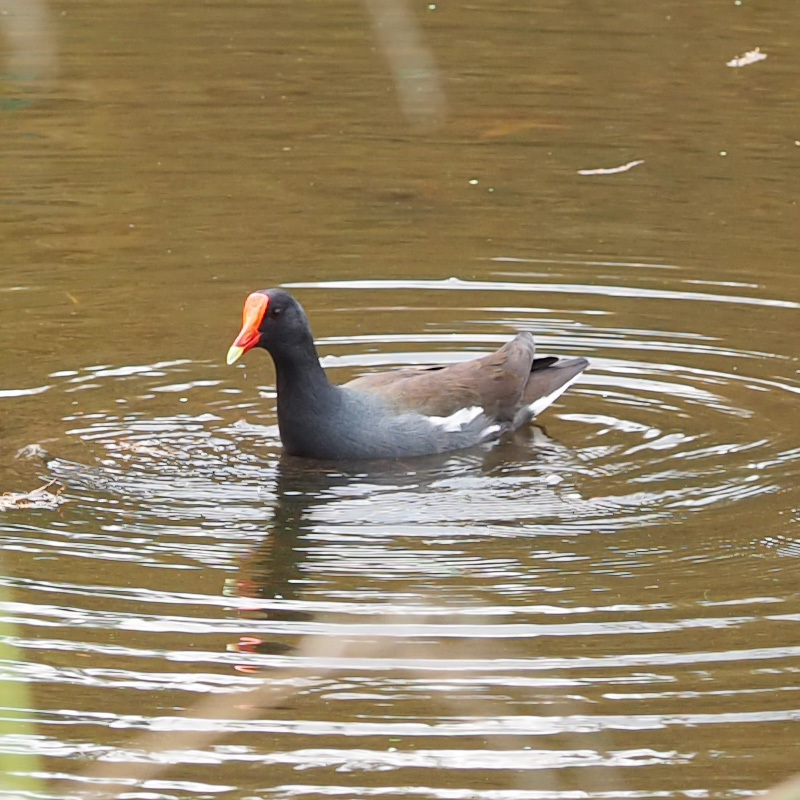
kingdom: Animalia
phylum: Chordata
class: Aves
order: Gruiformes
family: Rallidae
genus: Gallinula
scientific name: Gallinula chloropus
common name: Common moorhen
